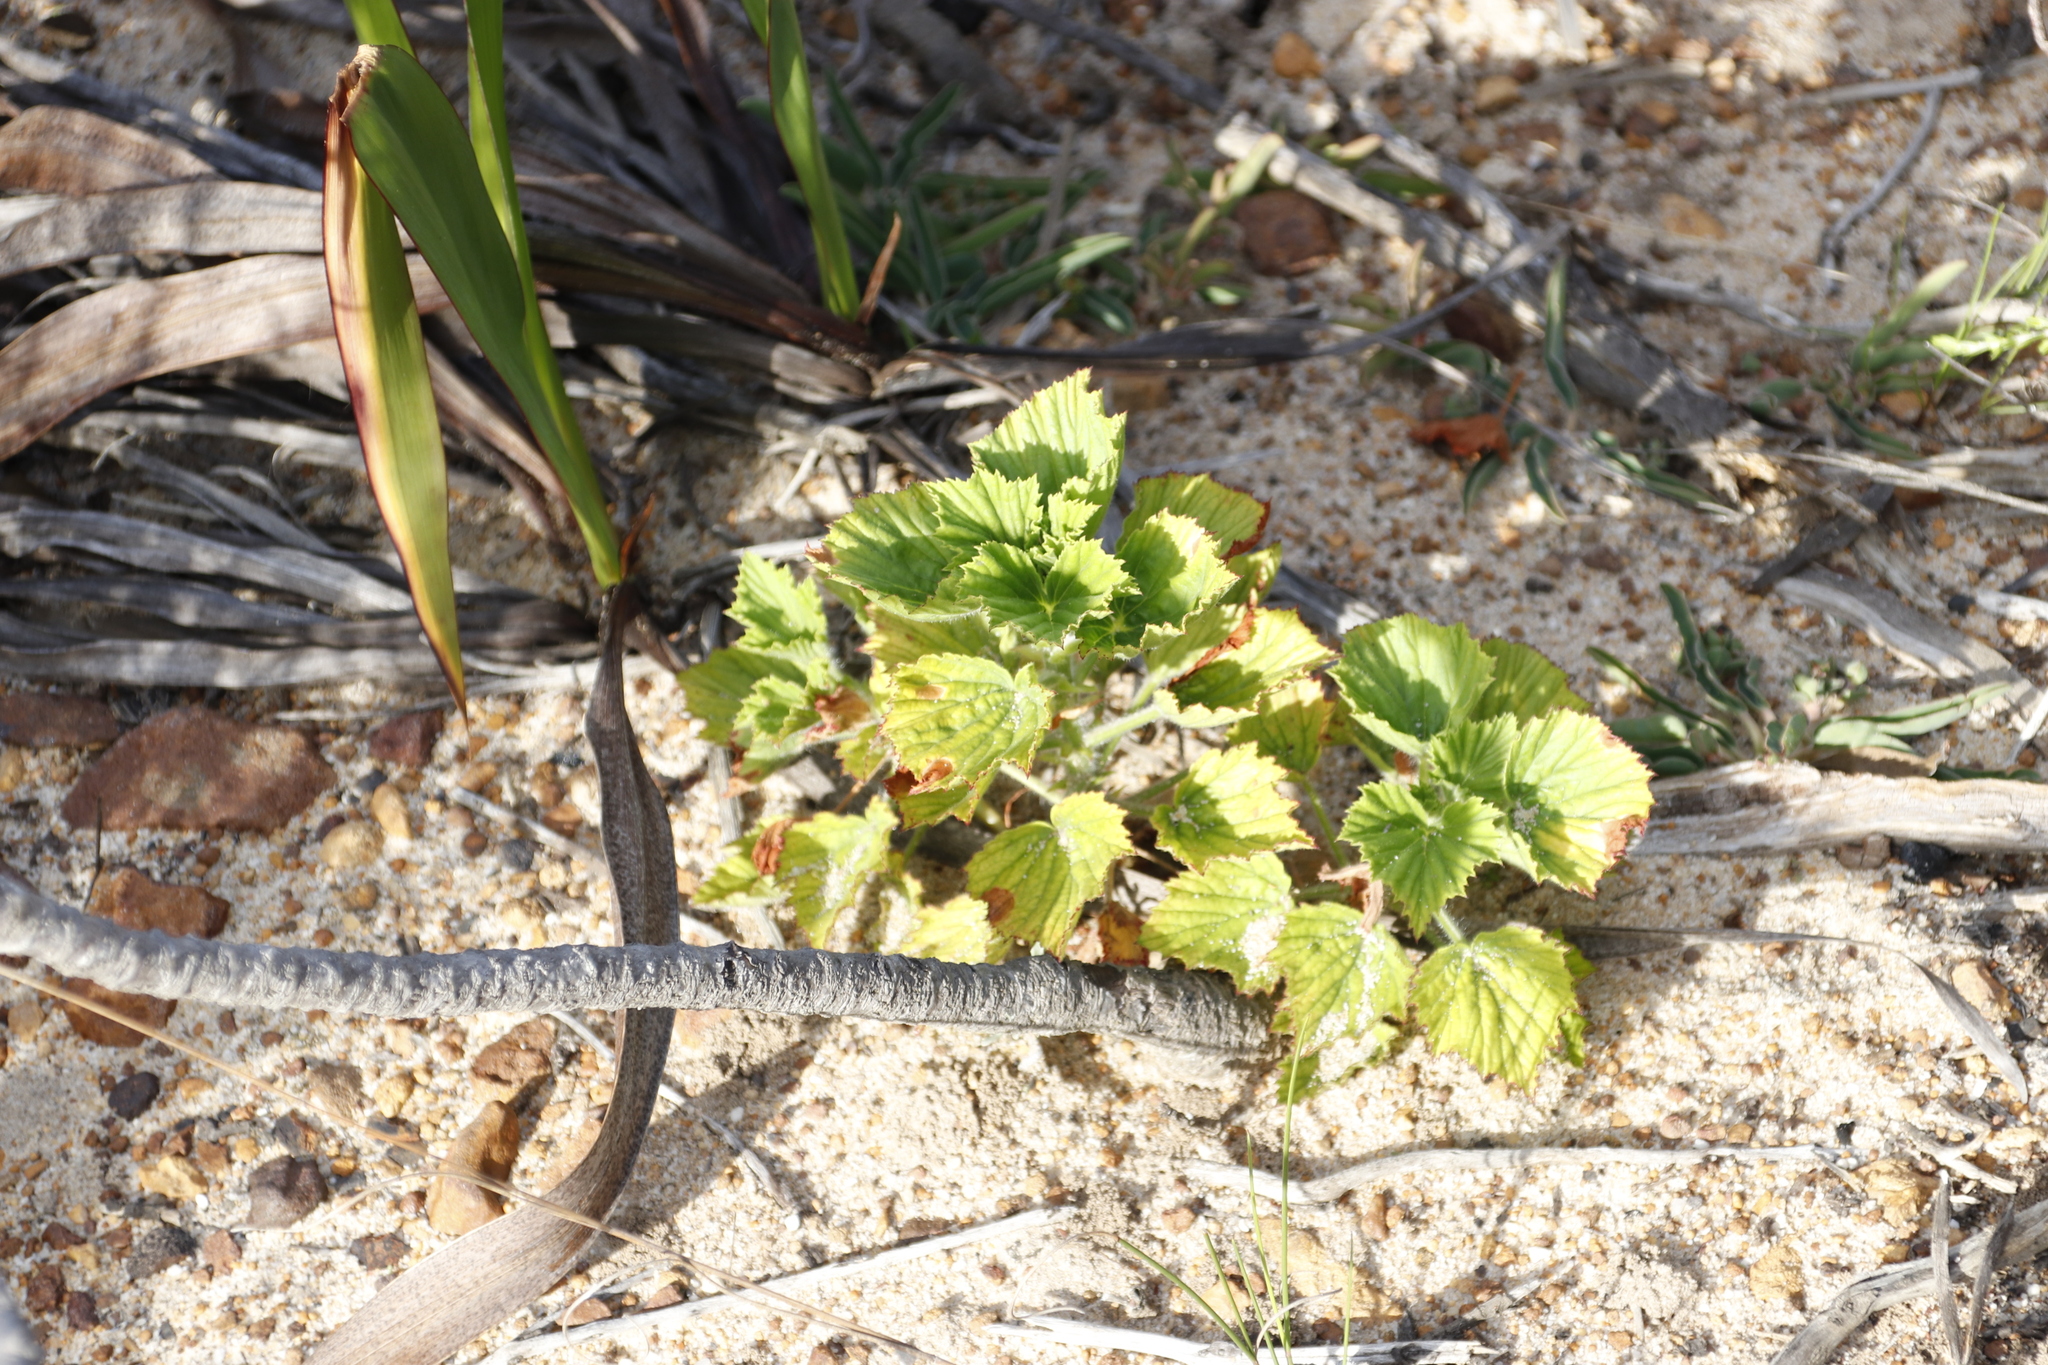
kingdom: Plantae
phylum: Tracheophyta
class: Magnoliopsida
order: Geraniales
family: Geraniaceae
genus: Pelargonium
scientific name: Pelargonium cucullatum
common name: Tree pelargonium
